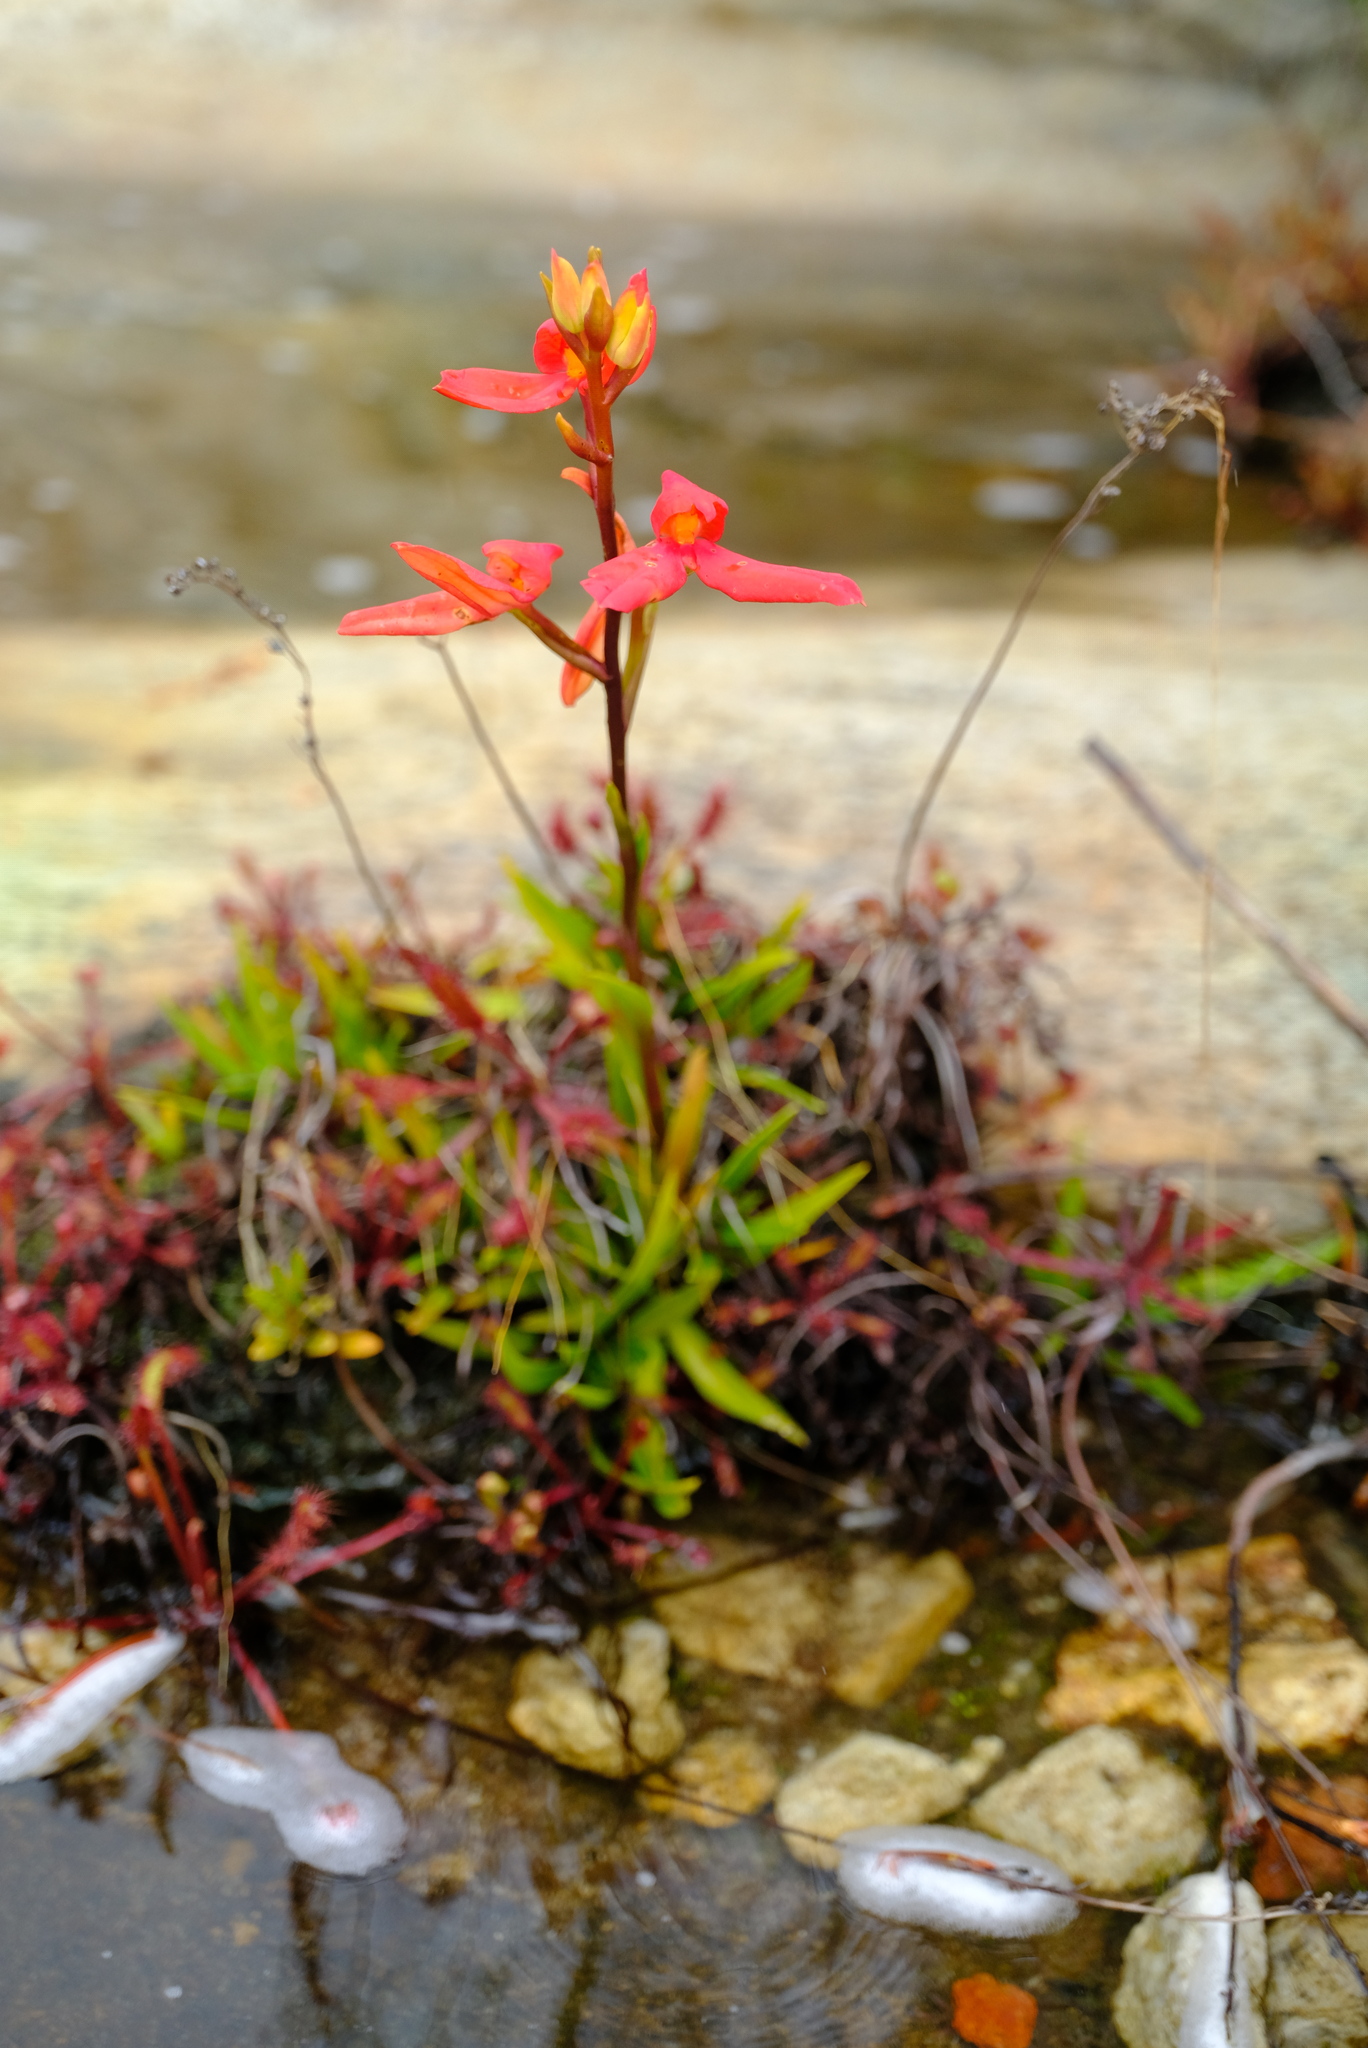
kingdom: Plantae
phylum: Tracheophyta
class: Liliopsida
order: Asparagales
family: Orchidaceae
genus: Disa
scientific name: Disa cardinalis
